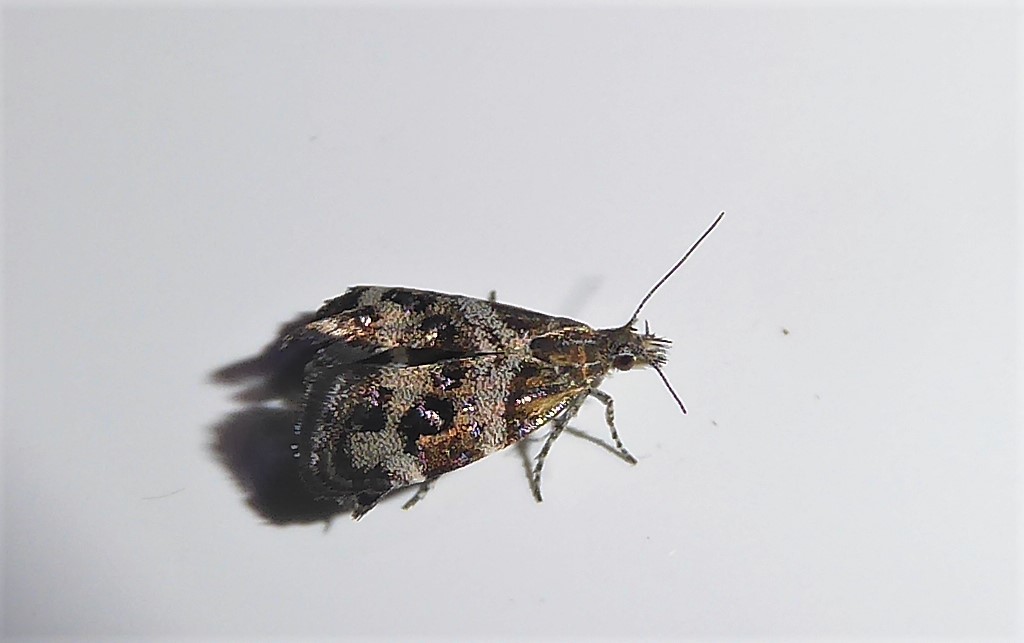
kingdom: Animalia
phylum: Arthropoda
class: Insecta
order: Lepidoptera
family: Choreutidae
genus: Tebenna
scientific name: Tebenna micalis
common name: Vagrant twitcher
